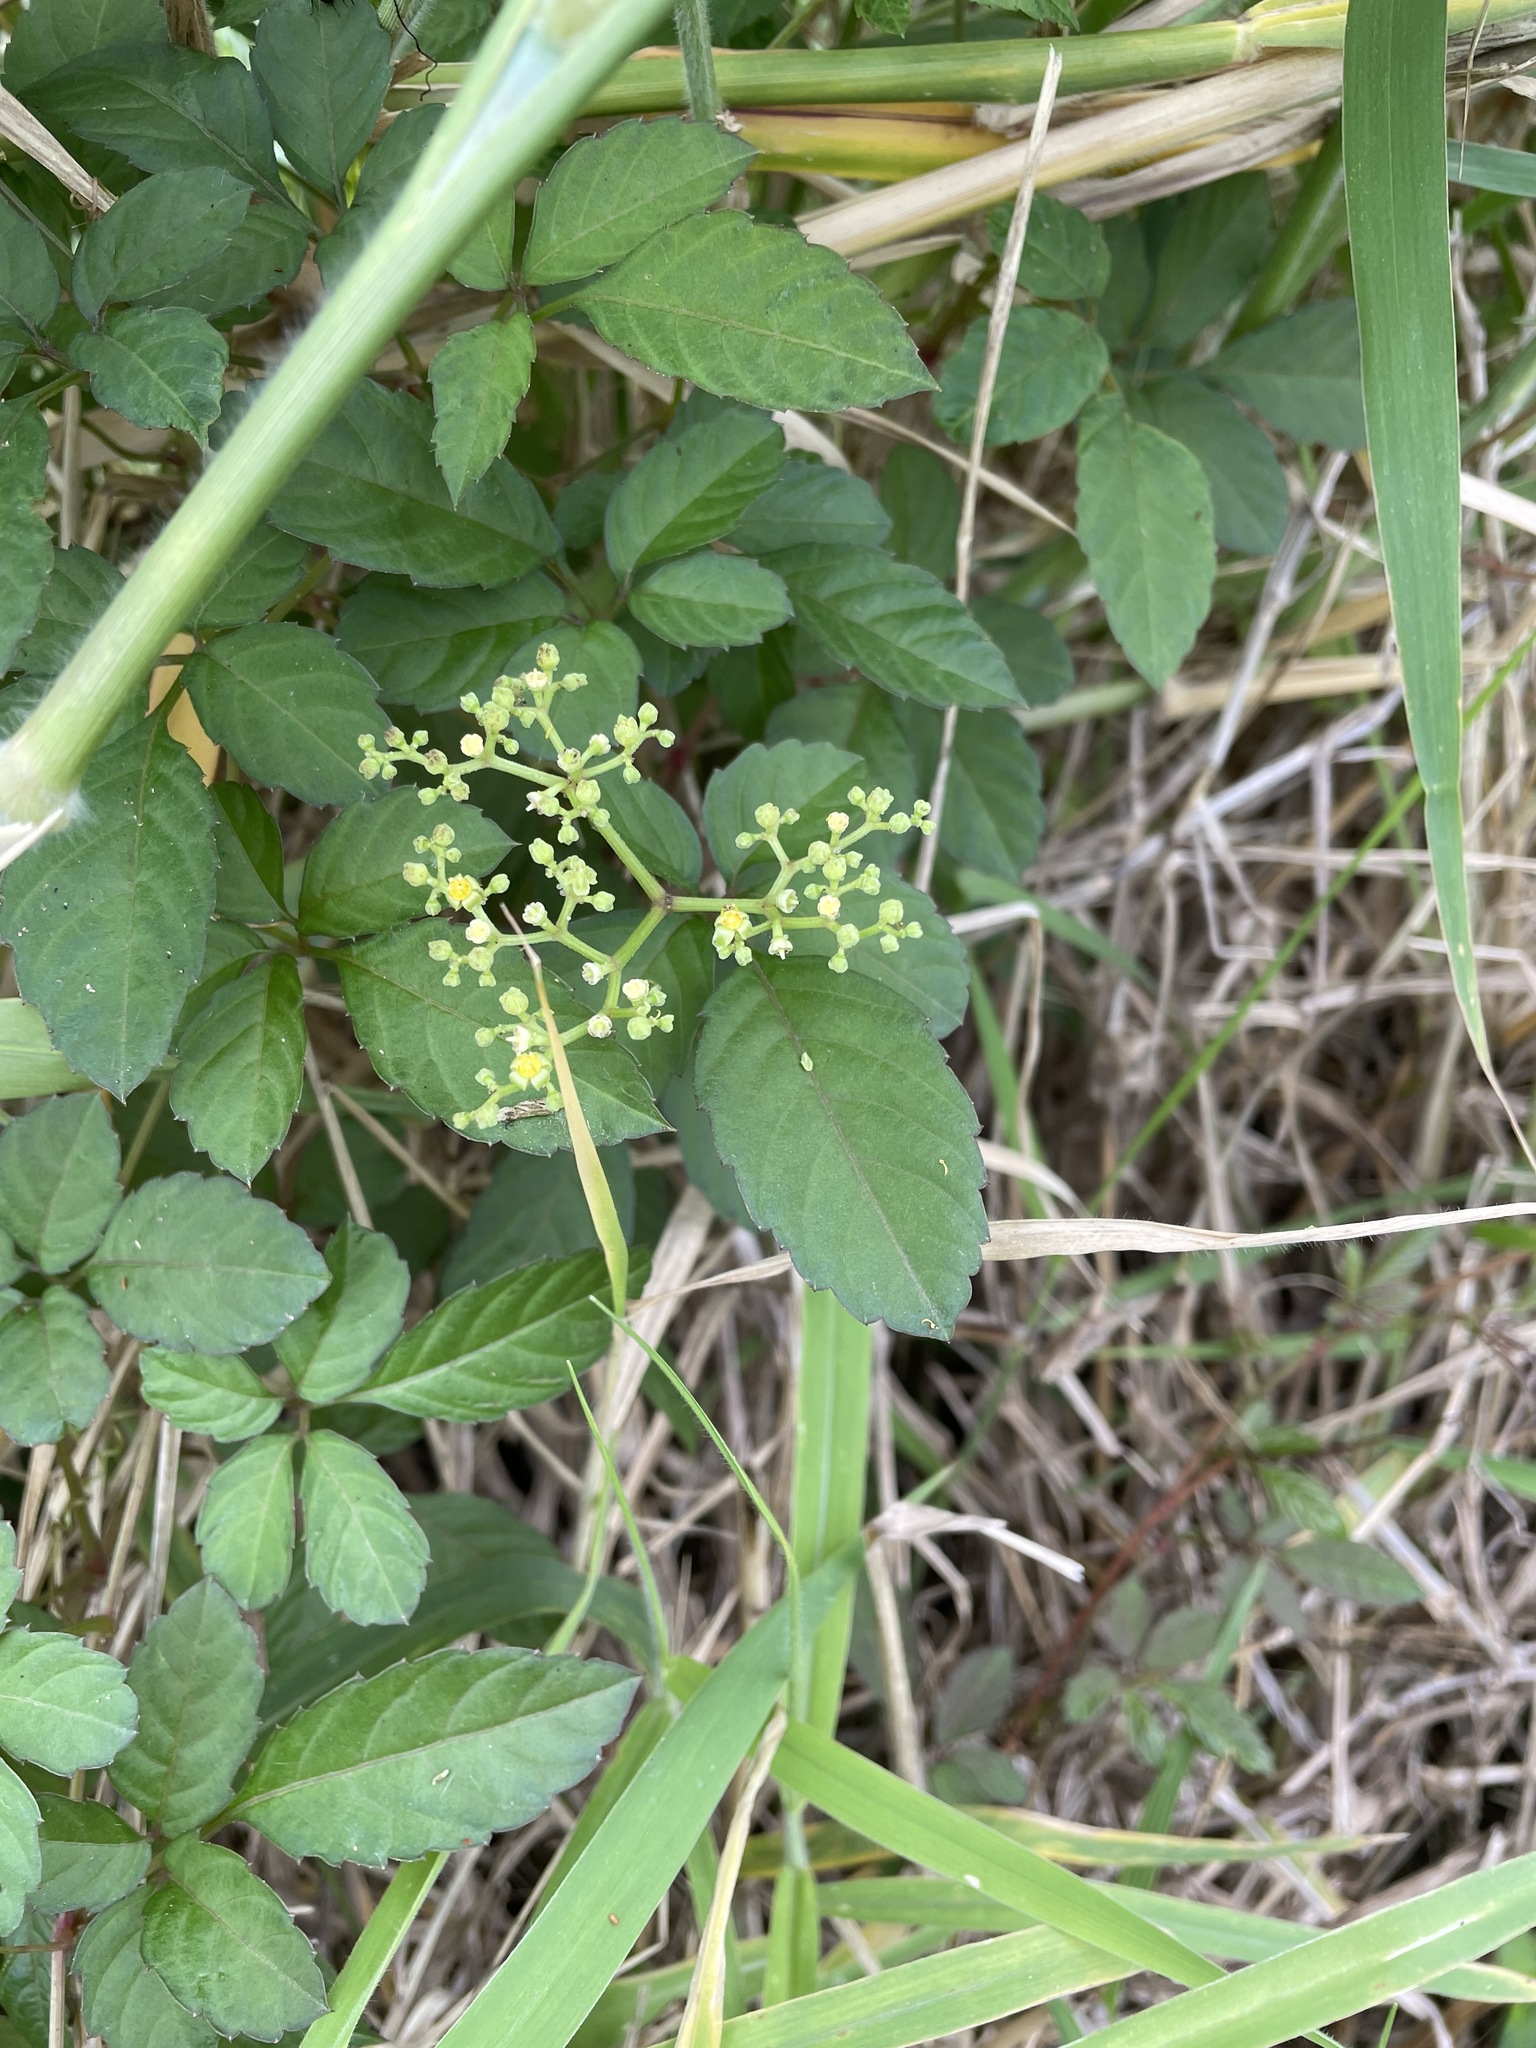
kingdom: Plantae
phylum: Tracheophyta
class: Magnoliopsida
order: Vitales
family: Vitaceae
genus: Causonis
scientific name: Causonis japonica
